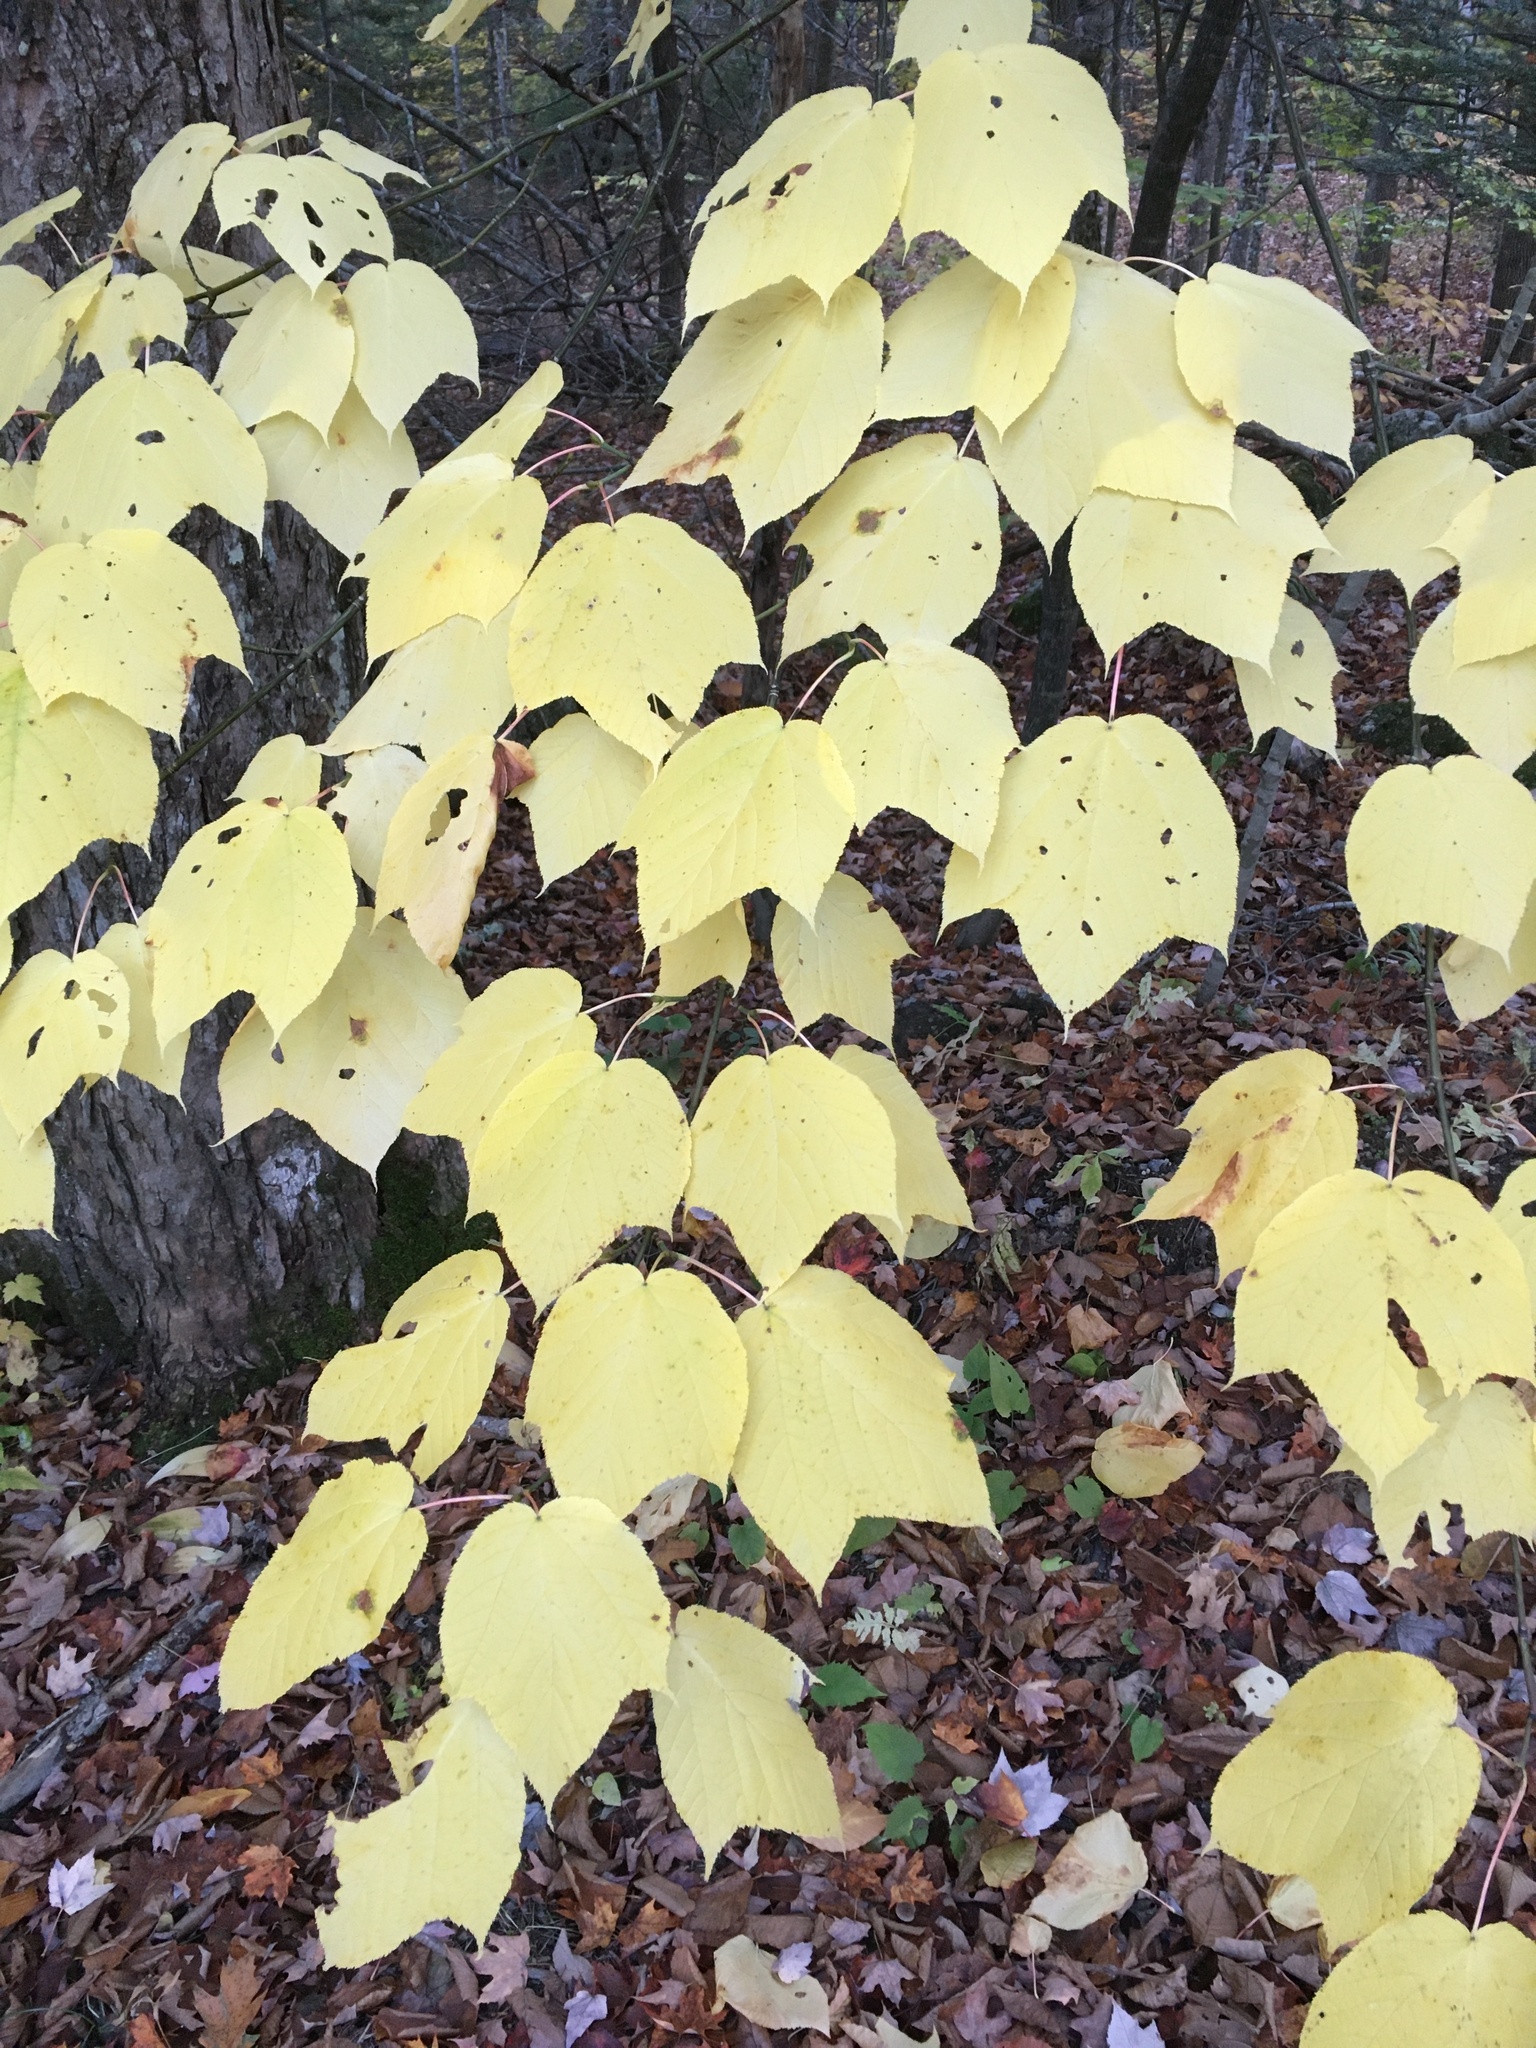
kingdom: Plantae
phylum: Tracheophyta
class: Magnoliopsida
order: Sapindales
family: Sapindaceae
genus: Acer
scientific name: Acer pensylvanicum
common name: Moosewood
